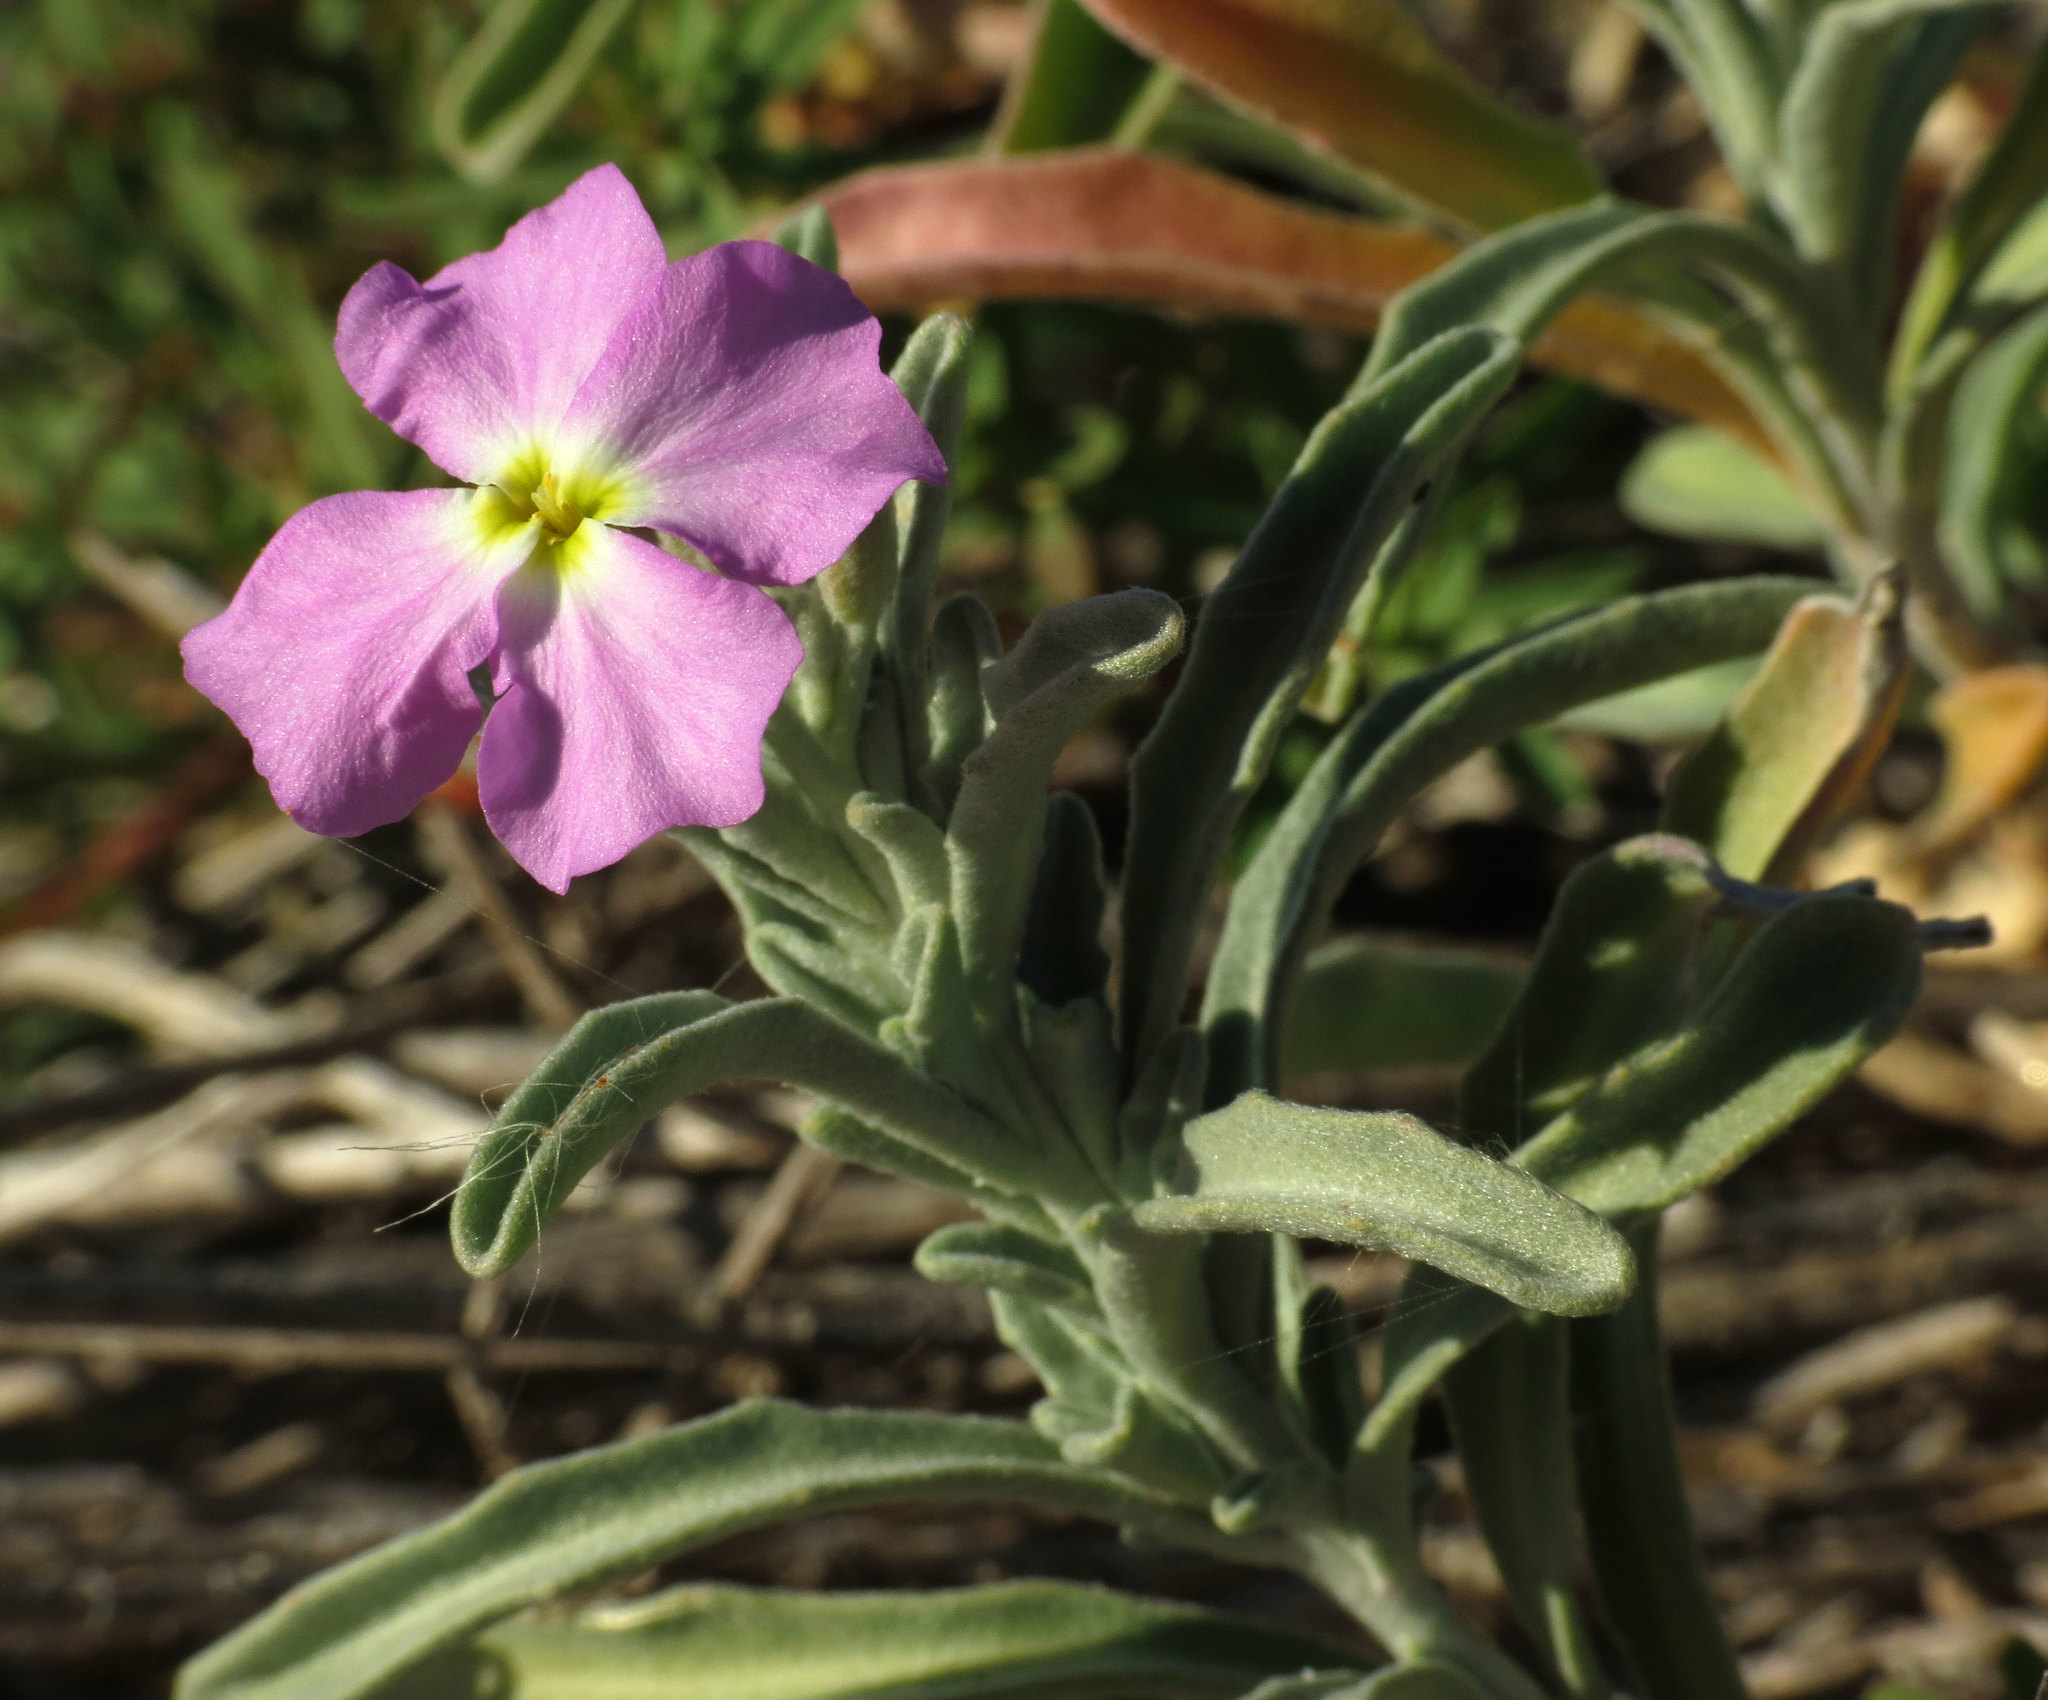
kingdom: Plantae
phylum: Tracheophyta
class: Magnoliopsida
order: Brassicales
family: Brassicaceae
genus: Marcuskochia
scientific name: Marcuskochia littorea
